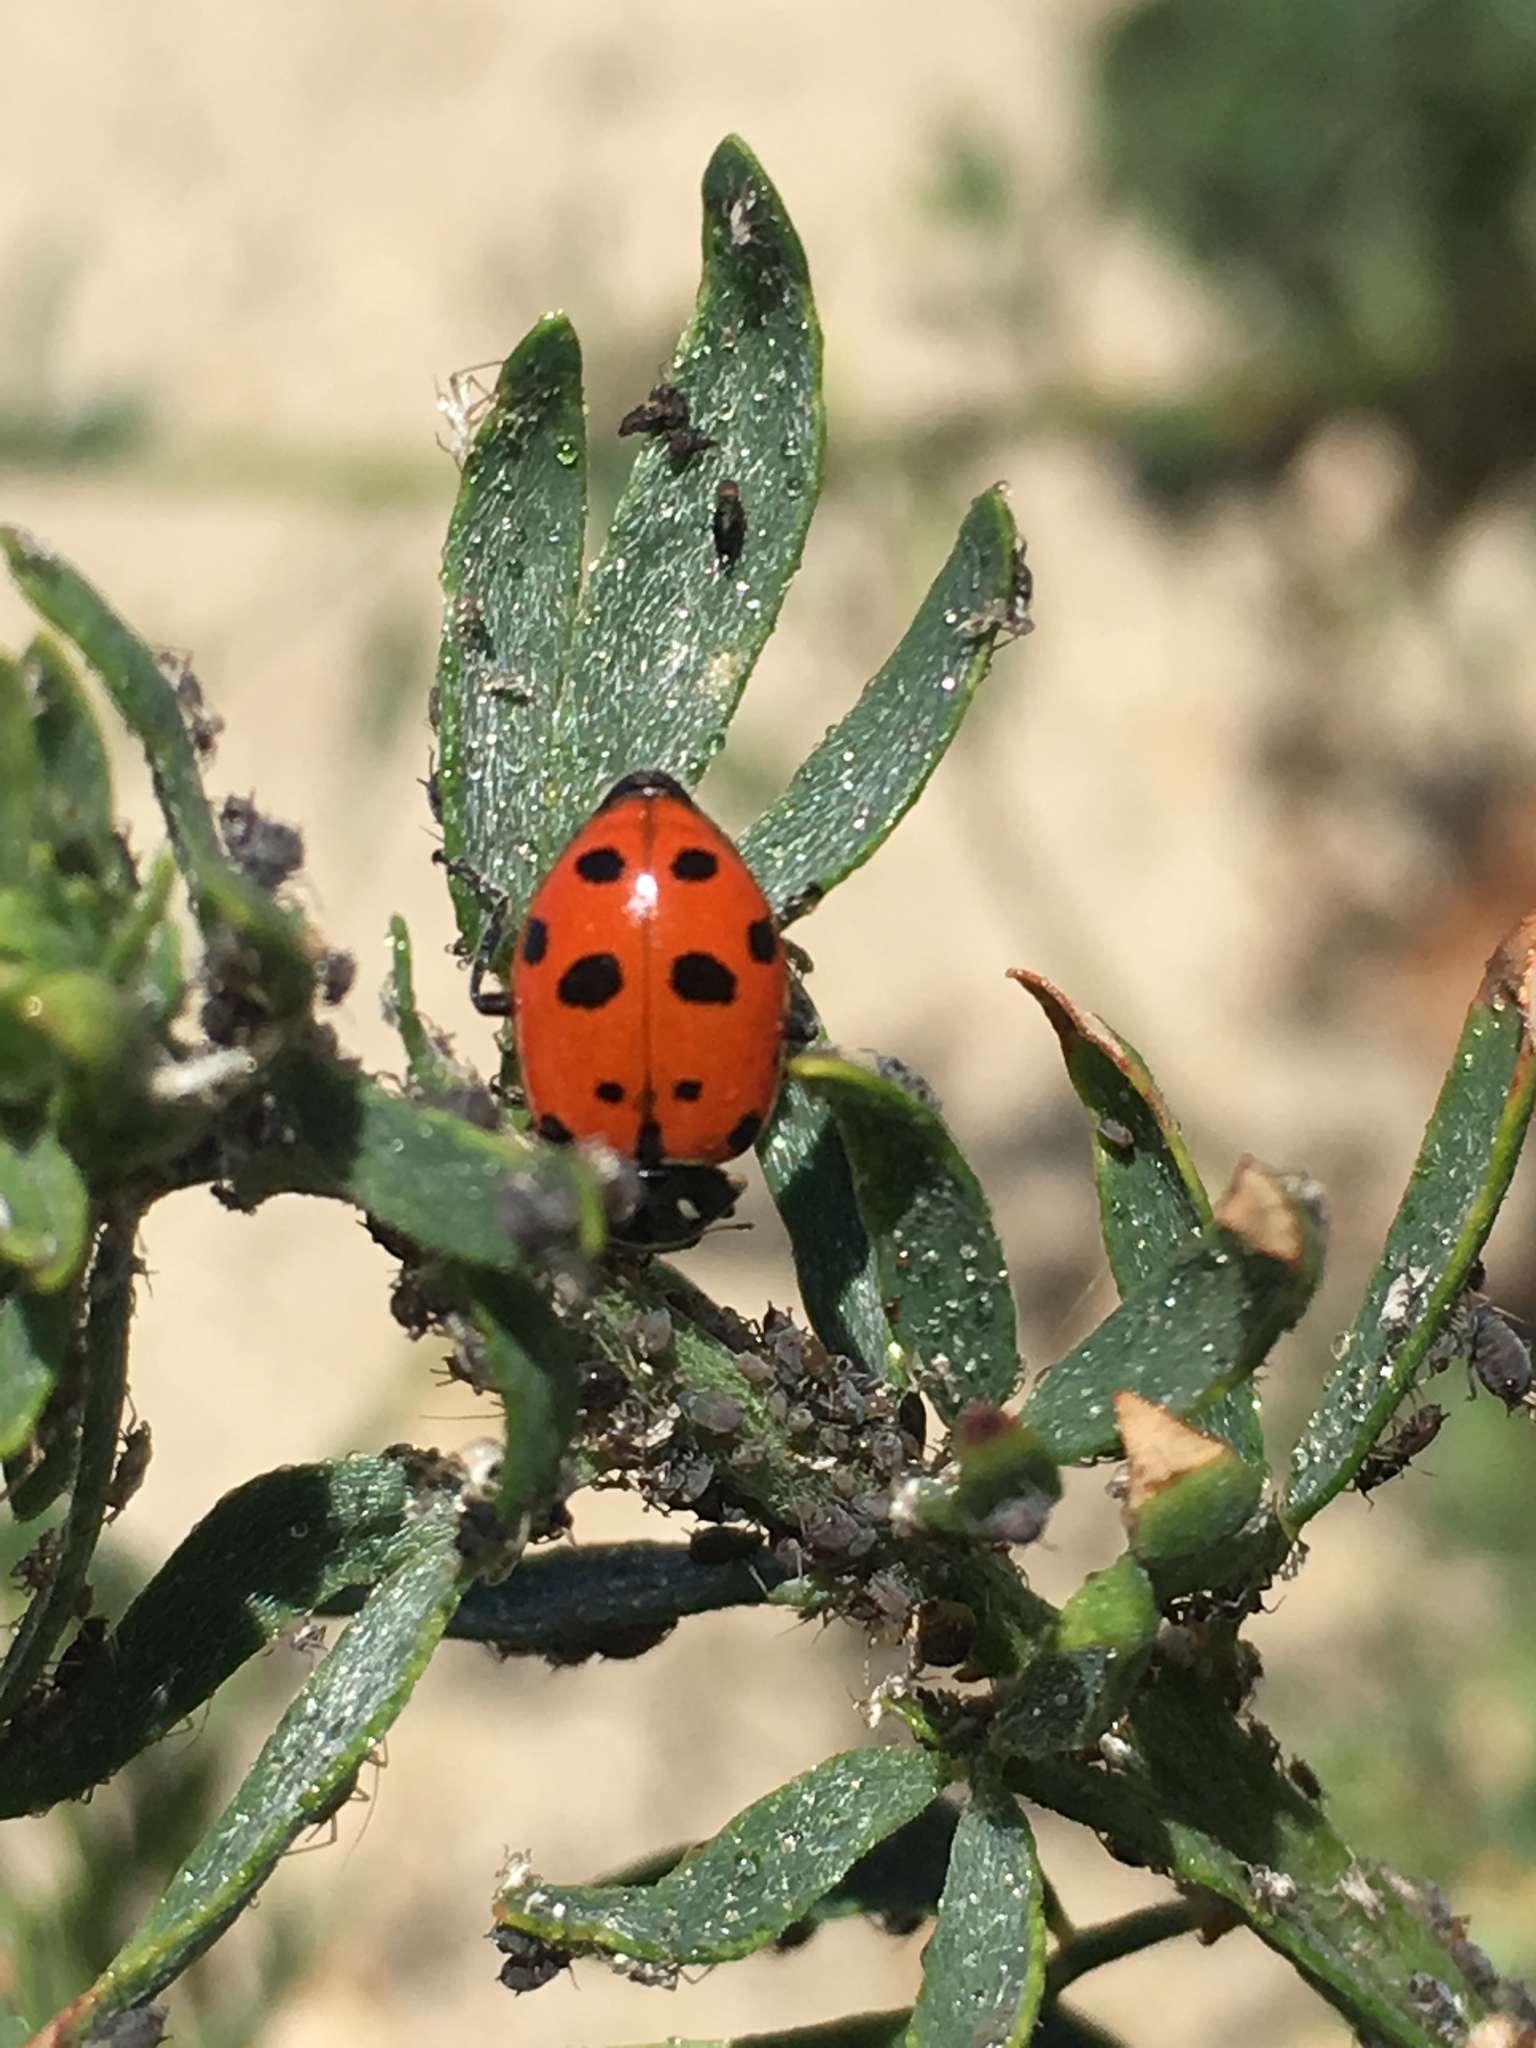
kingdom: Animalia
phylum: Arthropoda
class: Insecta
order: Coleoptera
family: Coccinellidae
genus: Hippodamia
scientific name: Hippodamia convergens
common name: Convergent lady beetle
